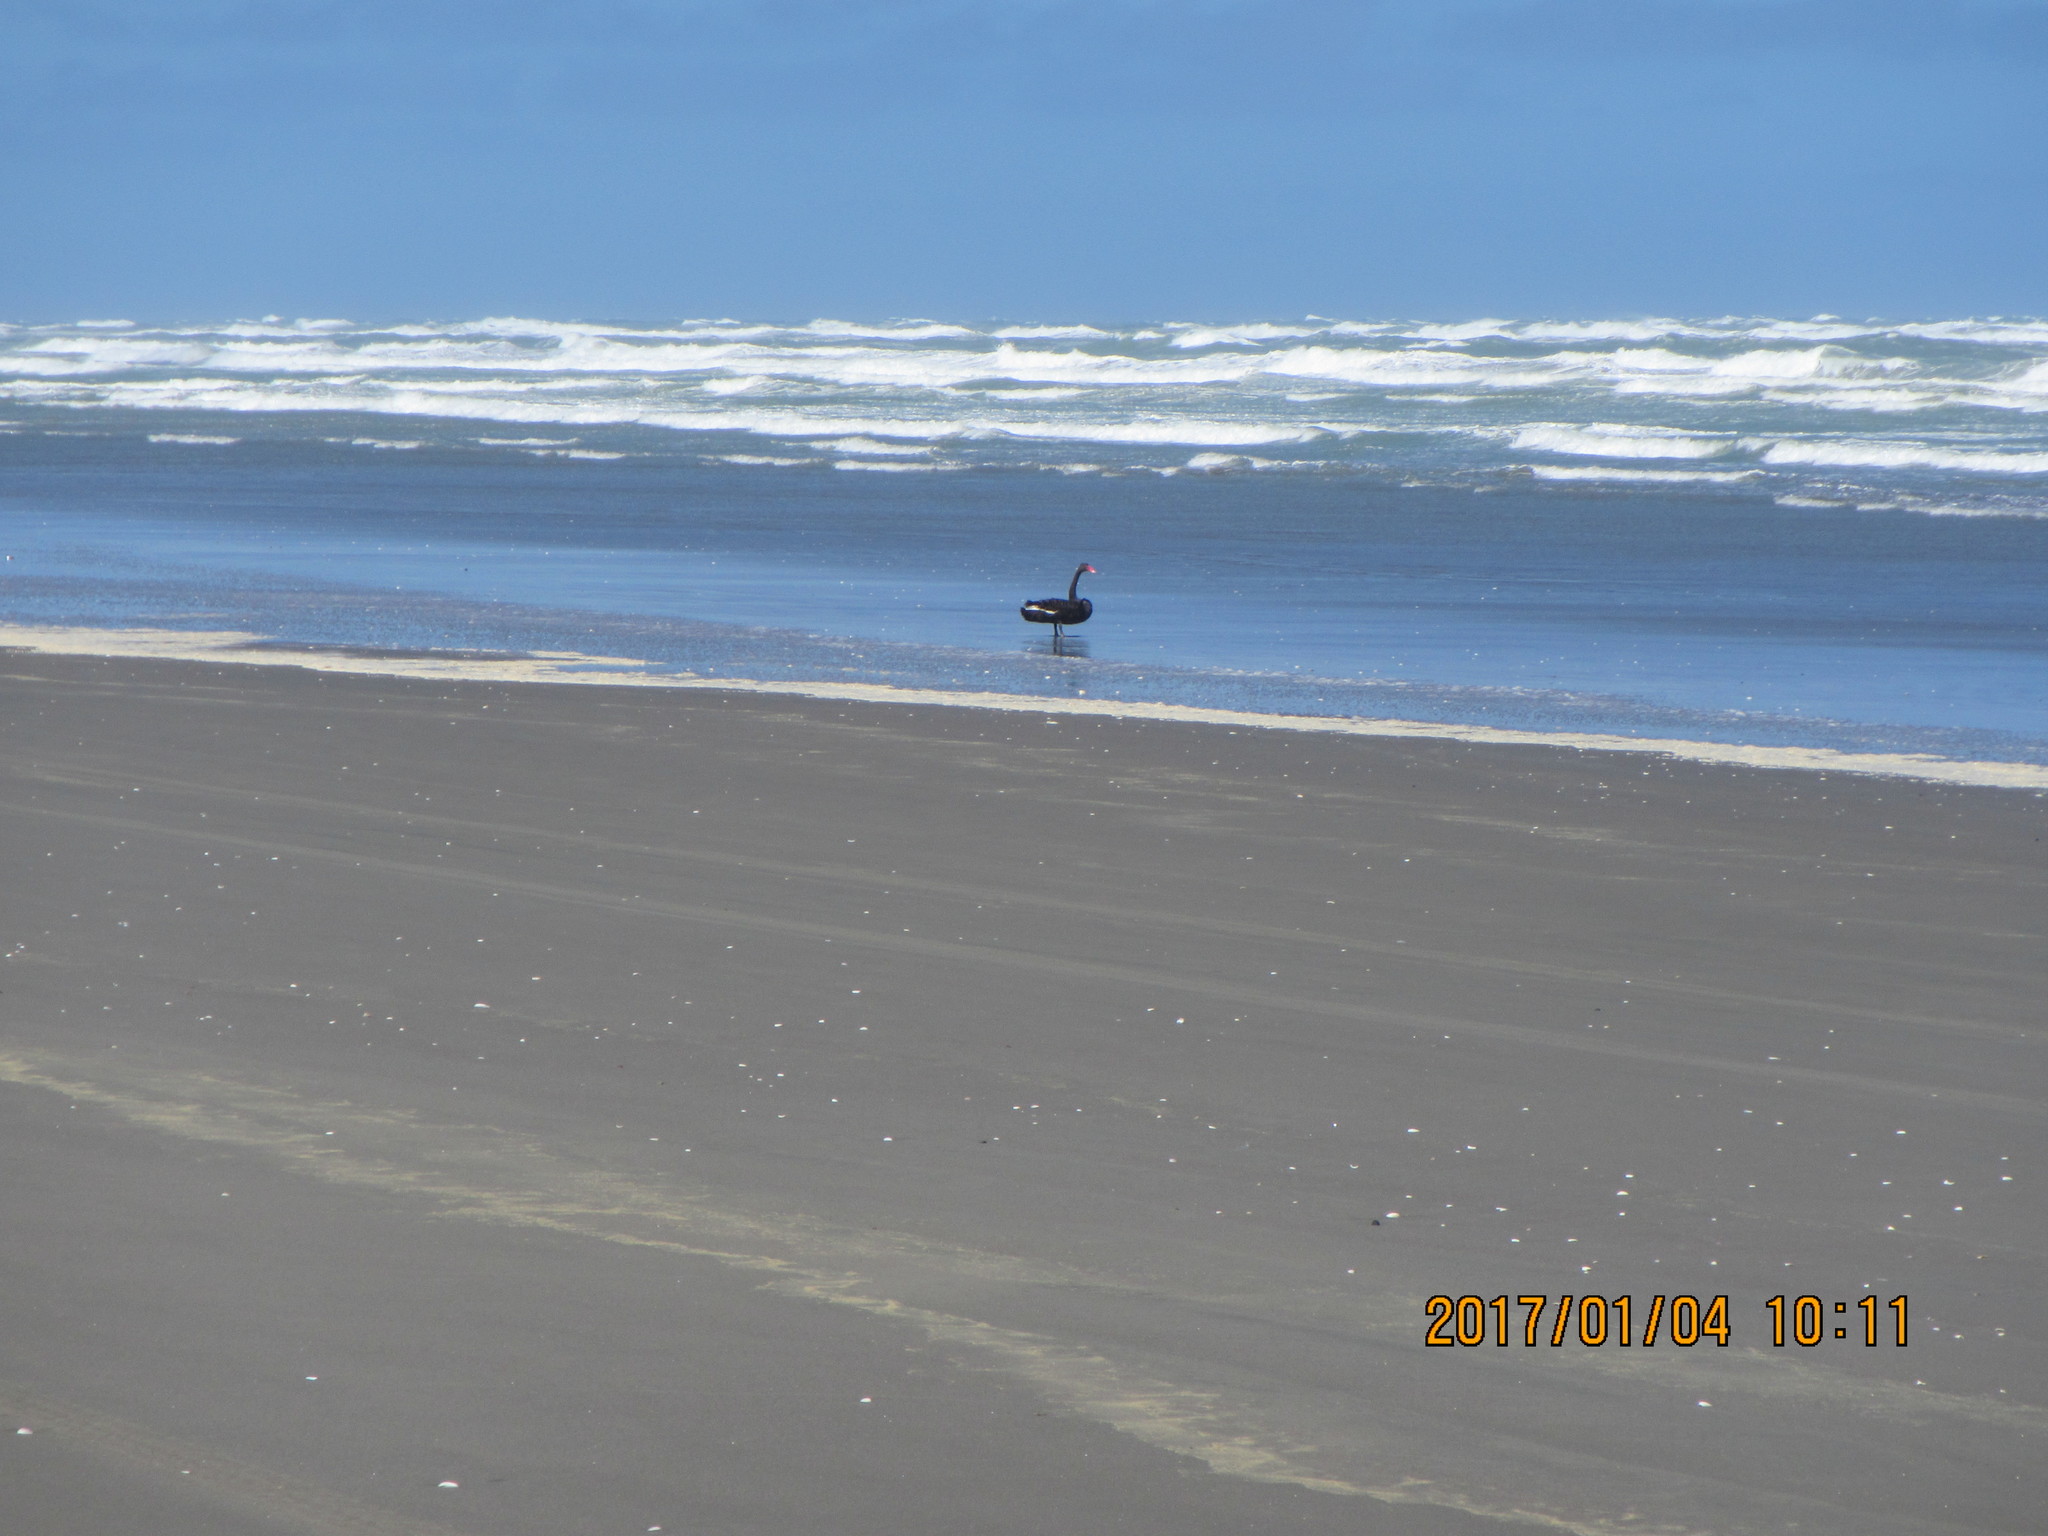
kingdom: Animalia
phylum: Chordata
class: Aves
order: Anseriformes
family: Anatidae
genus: Cygnus
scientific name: Cygnus atratus
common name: Black swan
